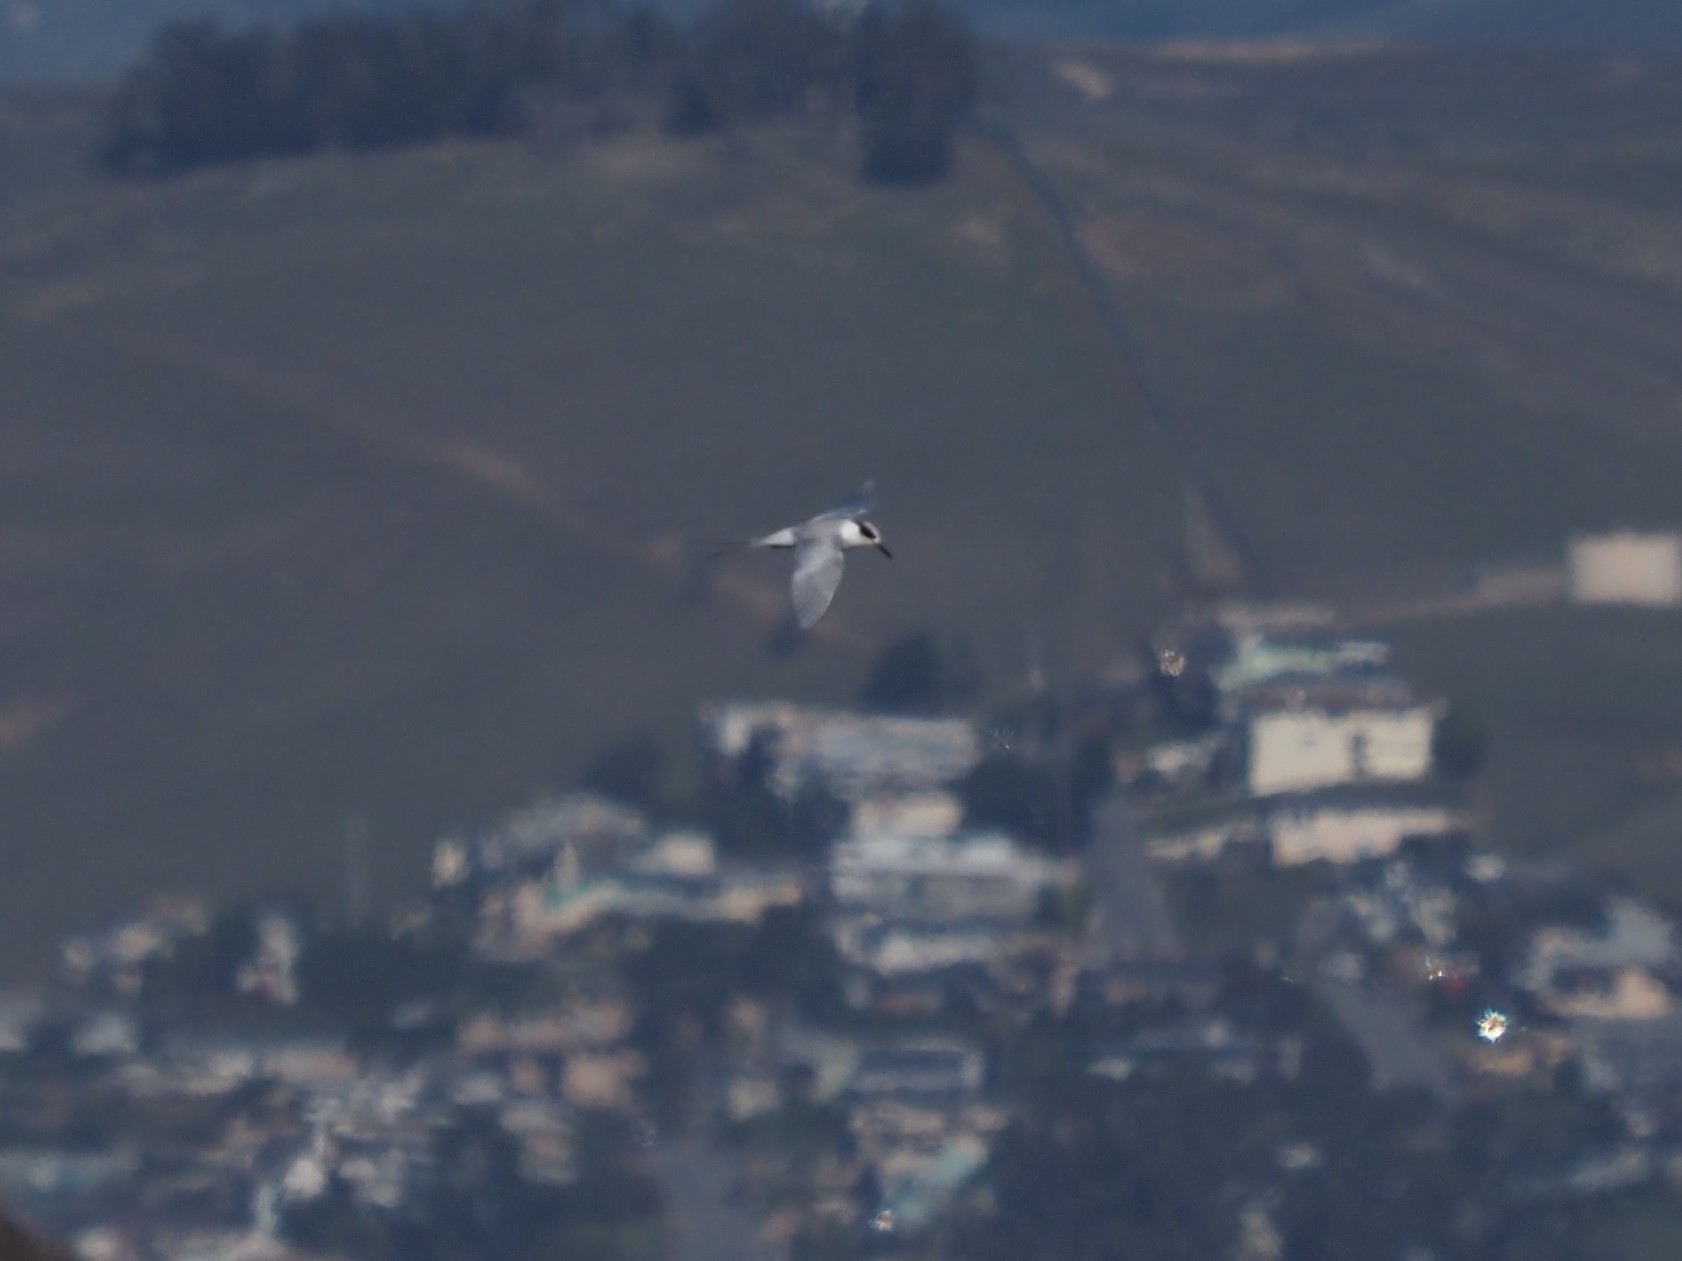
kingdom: Animalia
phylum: Chordata
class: Aves
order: Charadriiformes
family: Laridae
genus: Sterna
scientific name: Sterna forsteri
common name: Forster's tern
